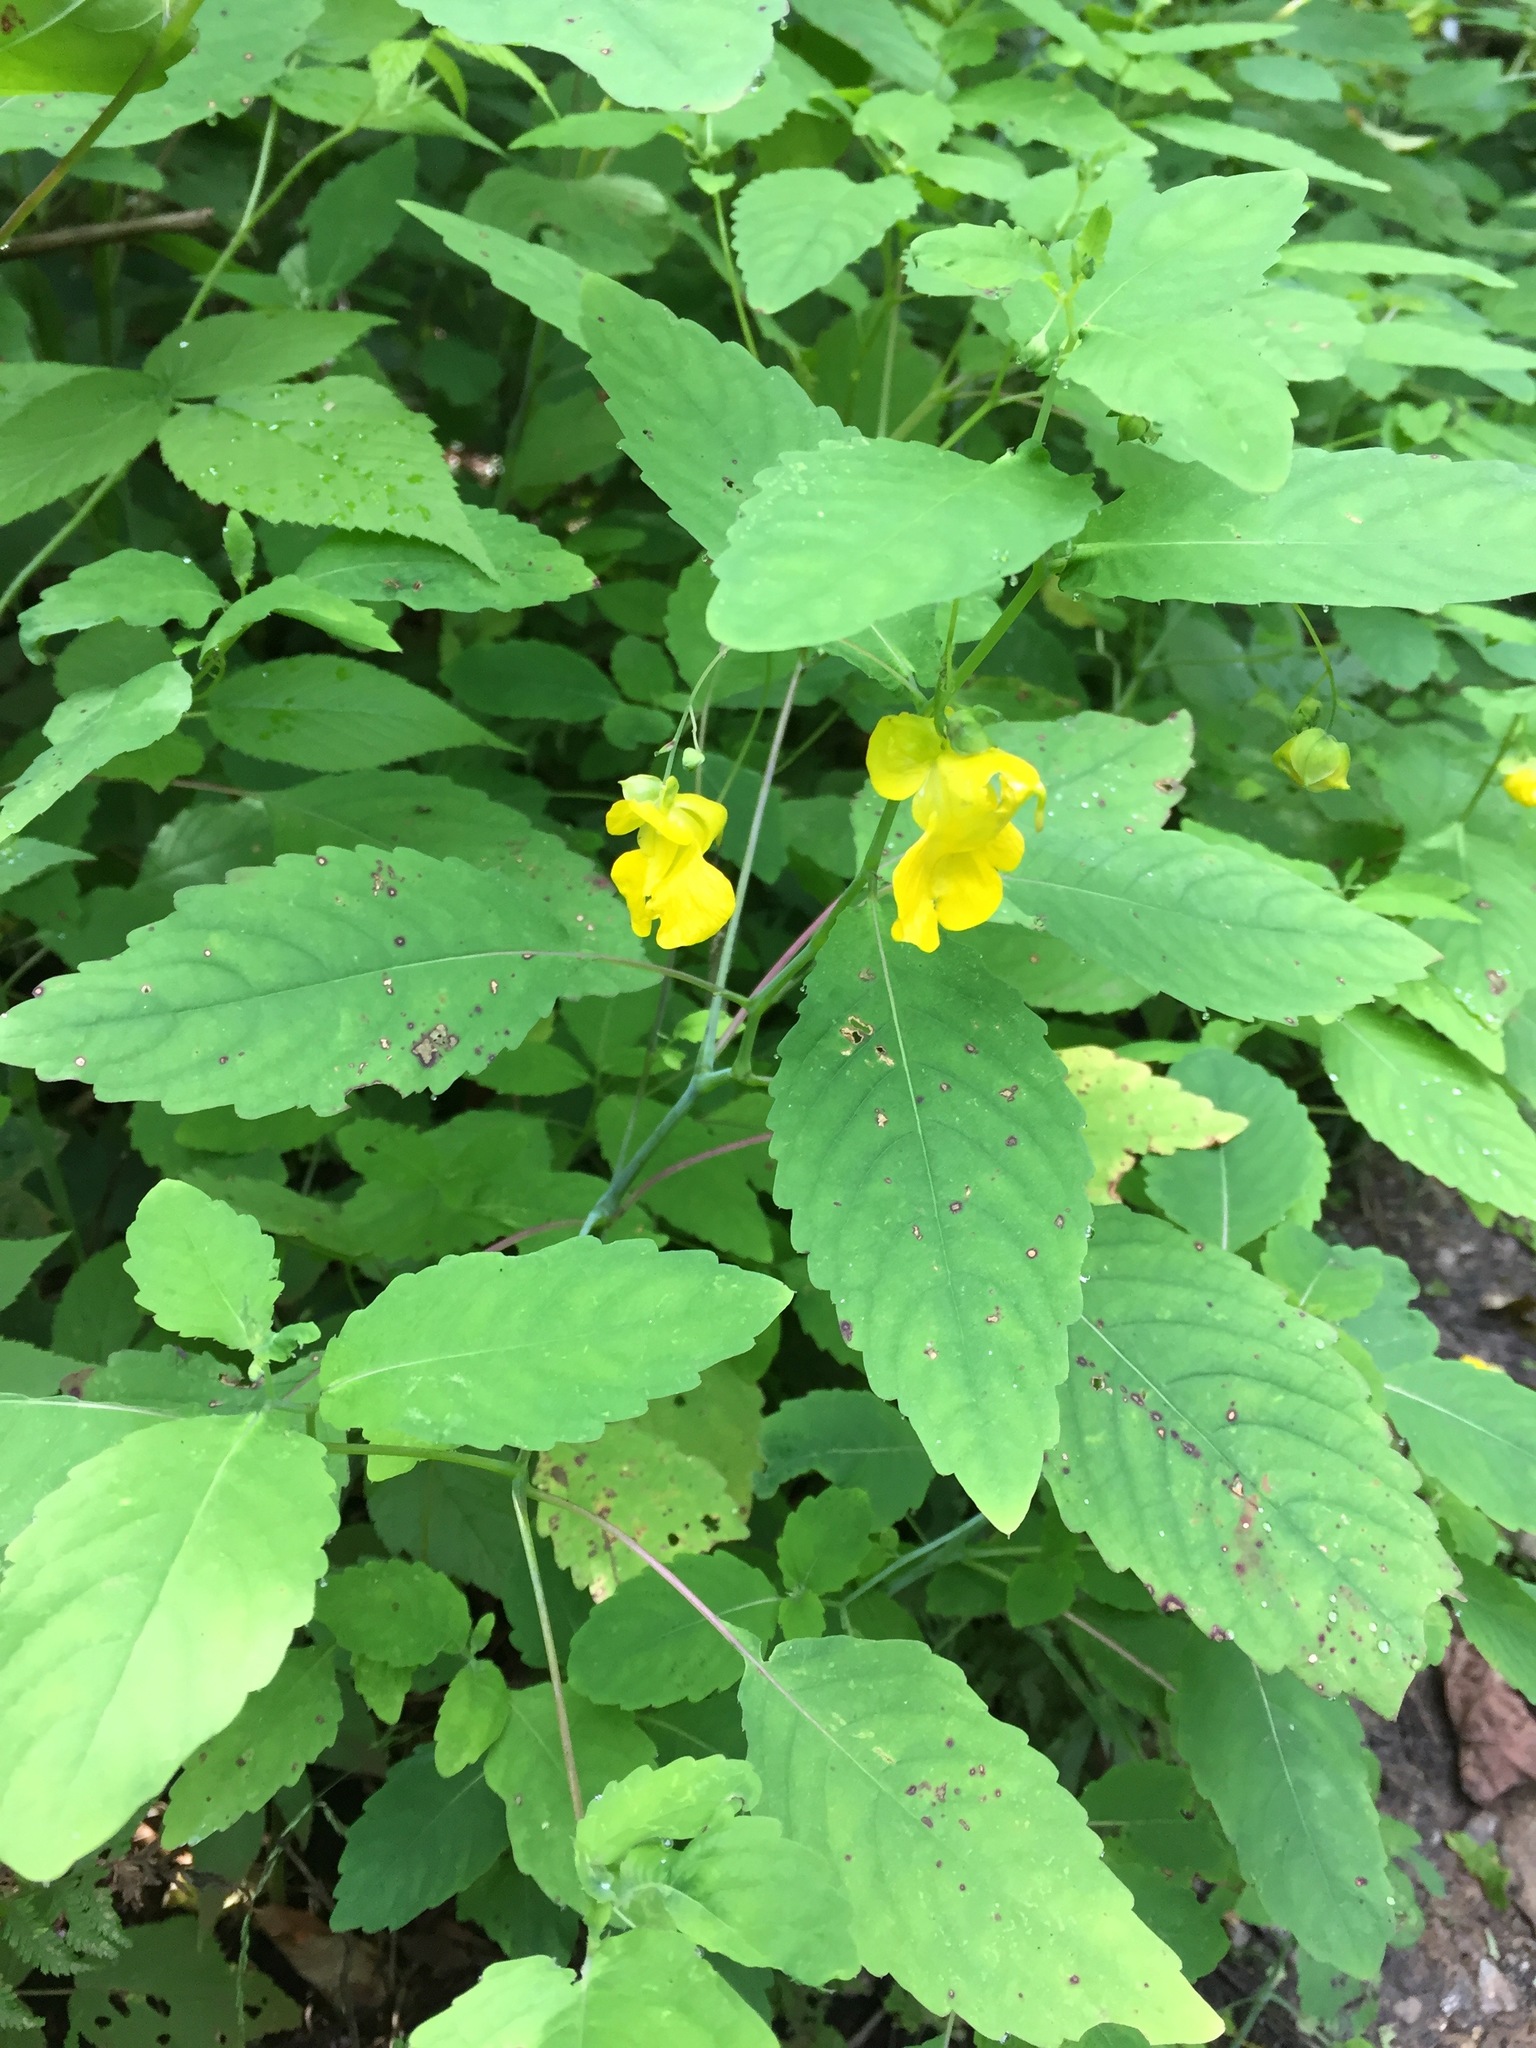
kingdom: Plantae
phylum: Tracheophyta
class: Magnoliopsida
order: Ericales
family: Balsaminaceae
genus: Impatiens
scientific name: Impatiens pallida
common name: Pale snapweed
